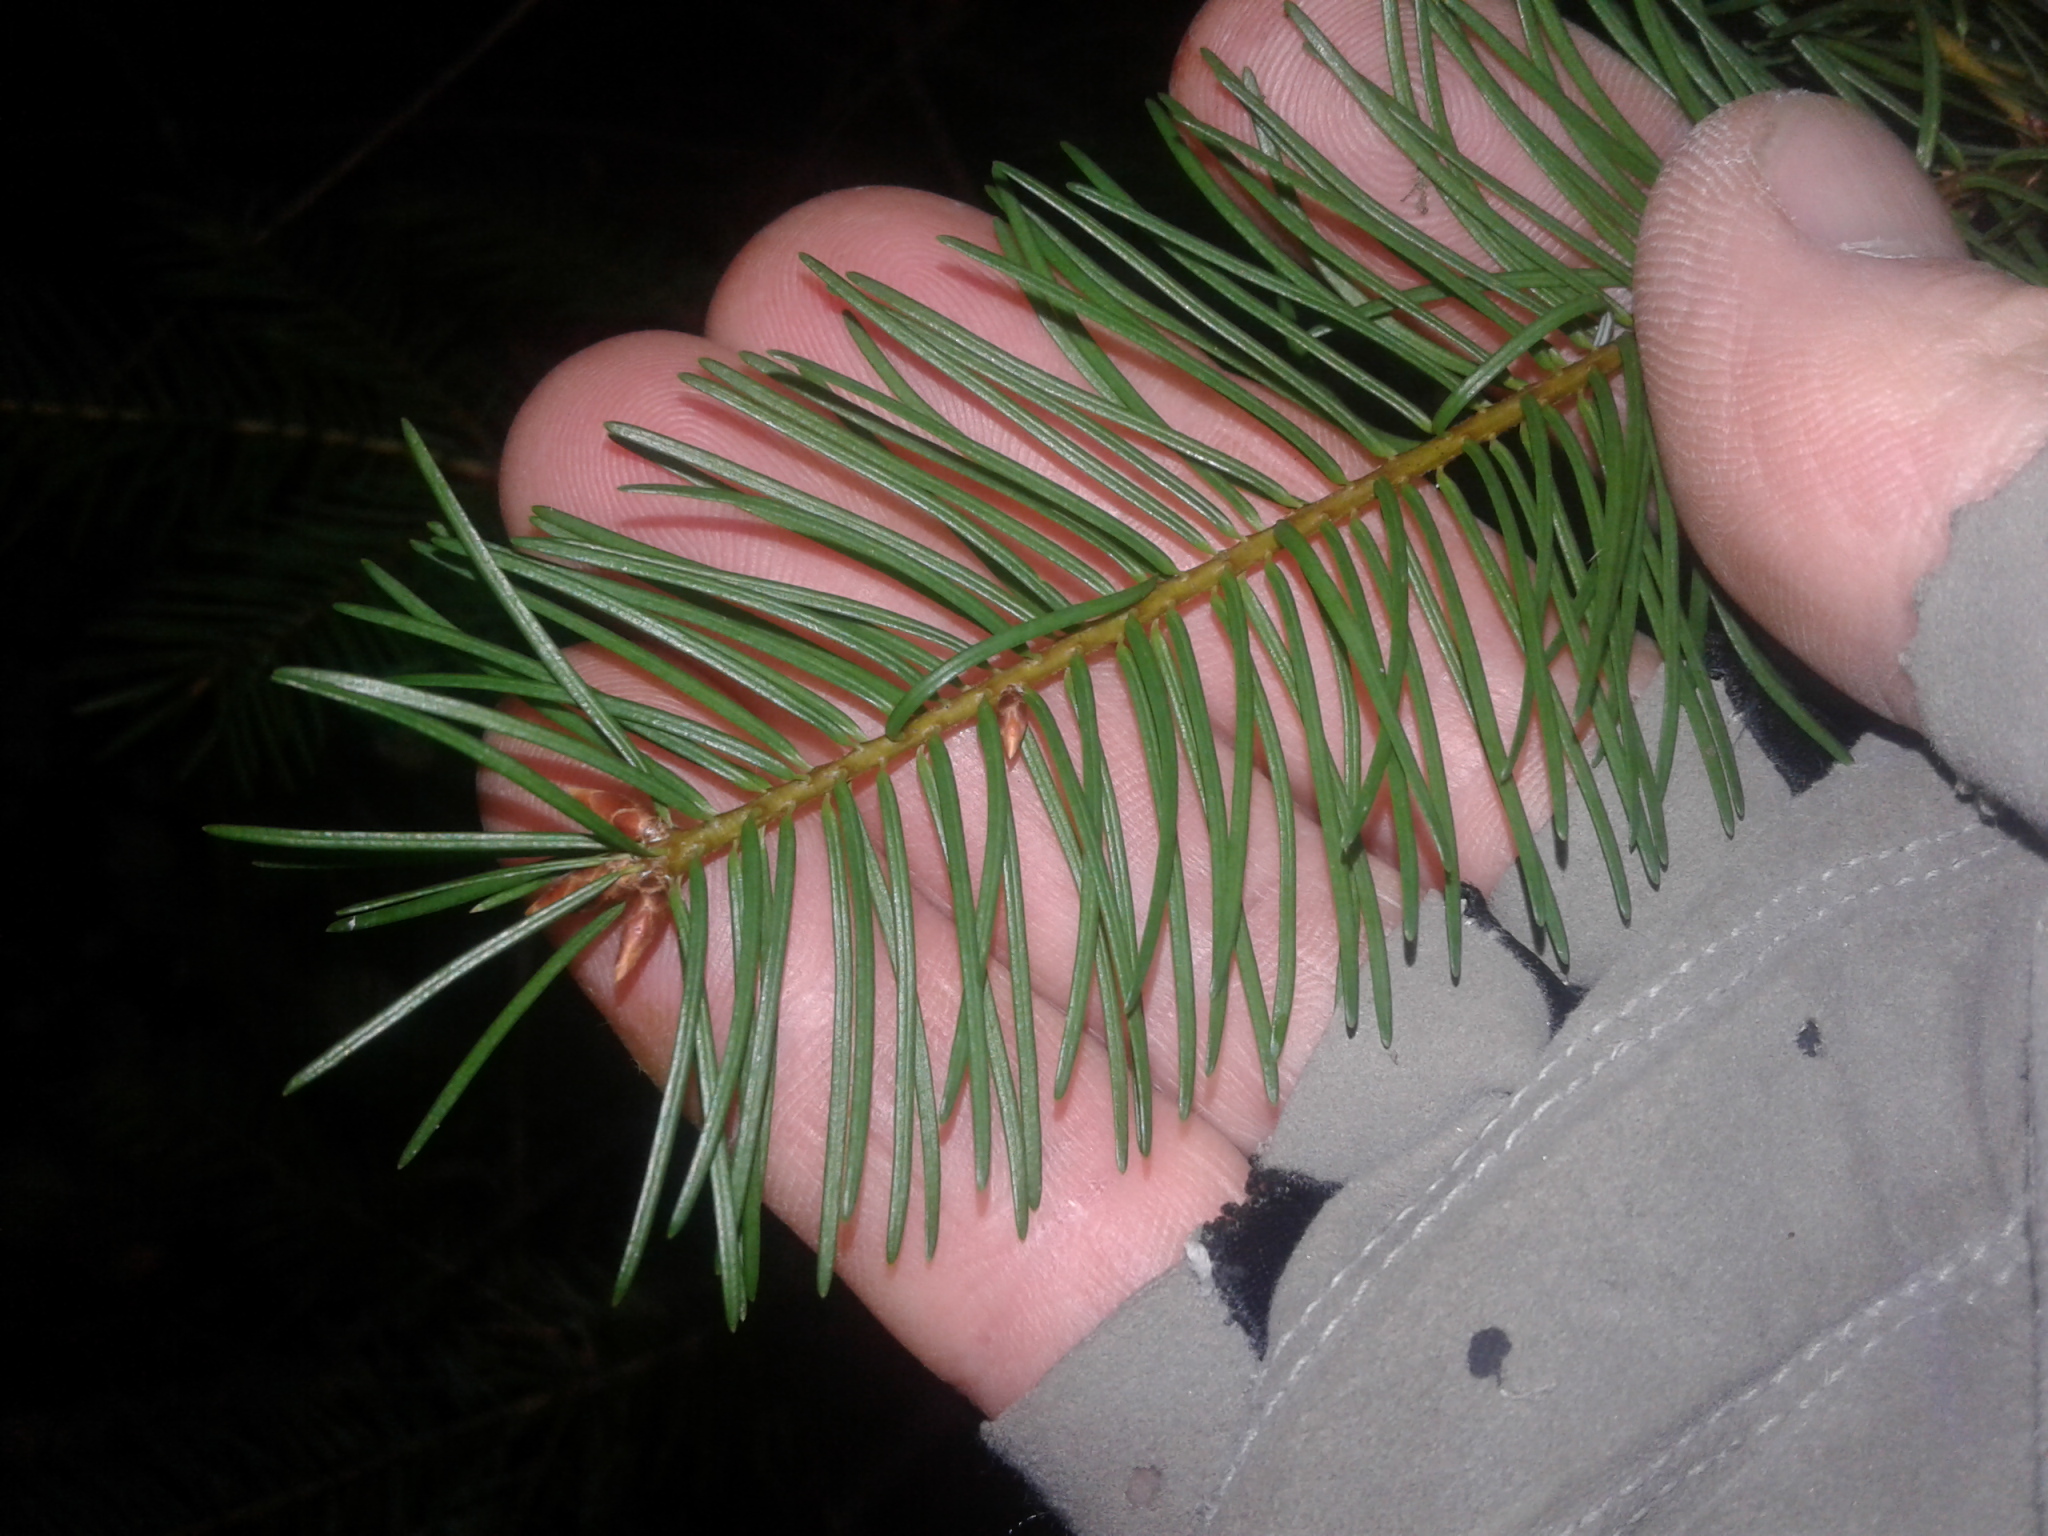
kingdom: Plantae
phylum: Tracheophyta
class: Pinopsida
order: Pinales
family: Pinaceae
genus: Pseudotsuga
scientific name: Pseudotsuga menziesii
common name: Douglas fir
